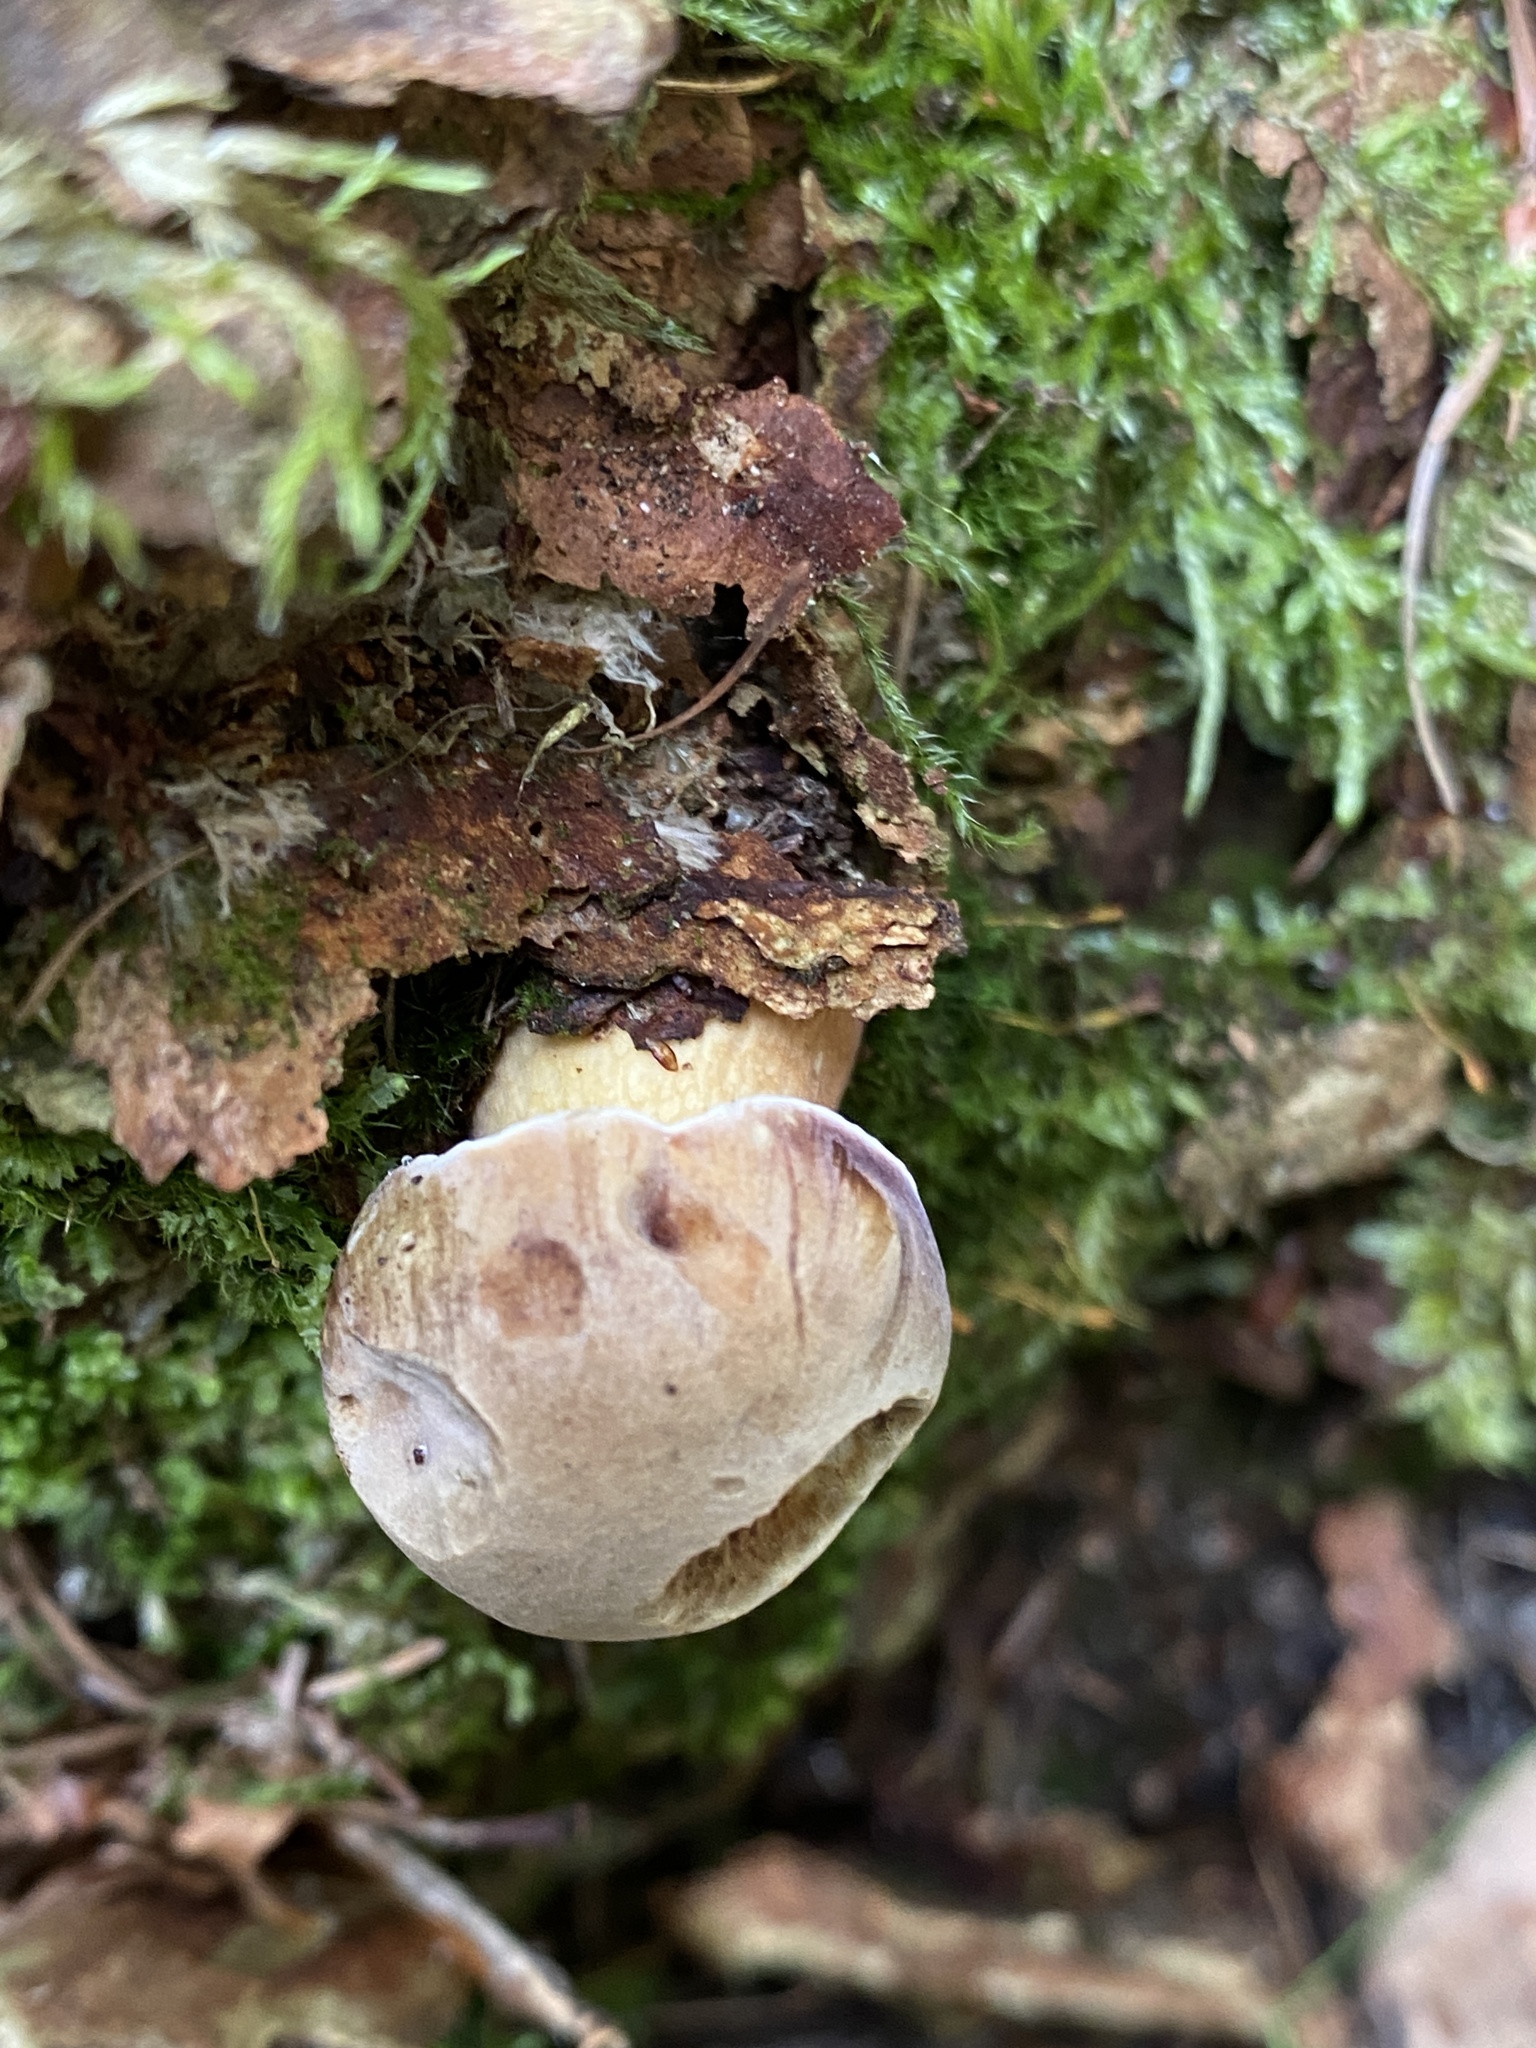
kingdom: Fungi
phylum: Basidiomycota
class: Agaricomycetes
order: Boletales
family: Boletaceae
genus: Tylopilus
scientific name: Tylopilus felleus
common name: Bitter bolete
